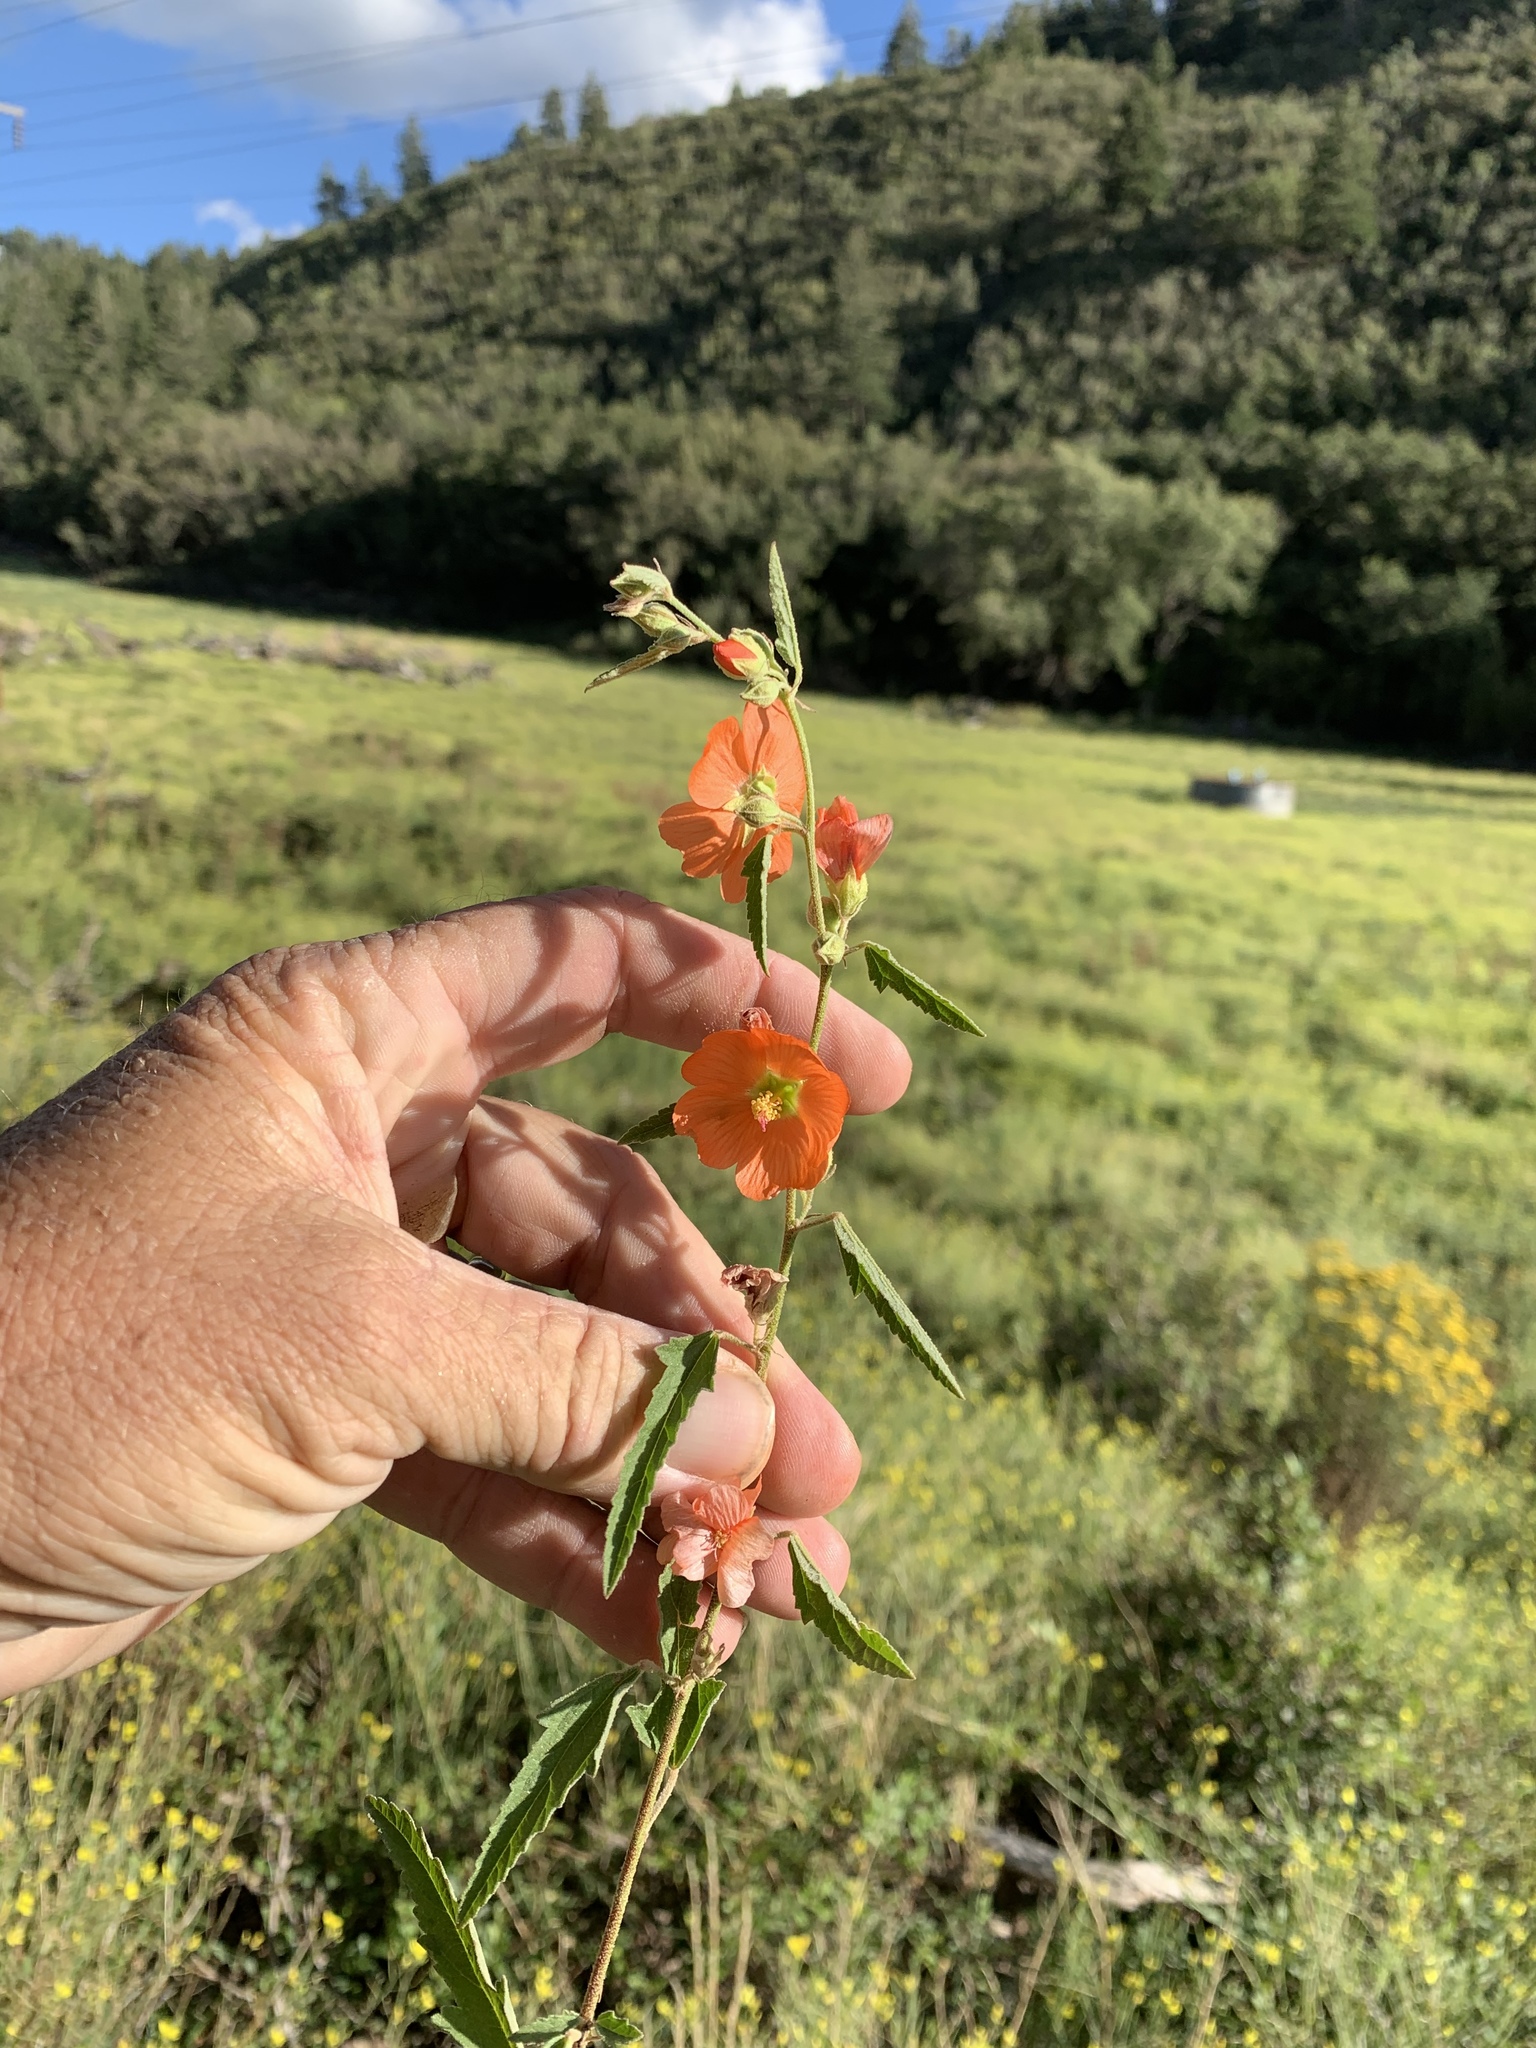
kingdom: Plantae
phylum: Tracheophyta
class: Magnoliopsida
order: Malvales
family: Malvaceae
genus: Sphaeralcea
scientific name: Sphaeralcea angustifolia
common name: Copper globe-mallow
